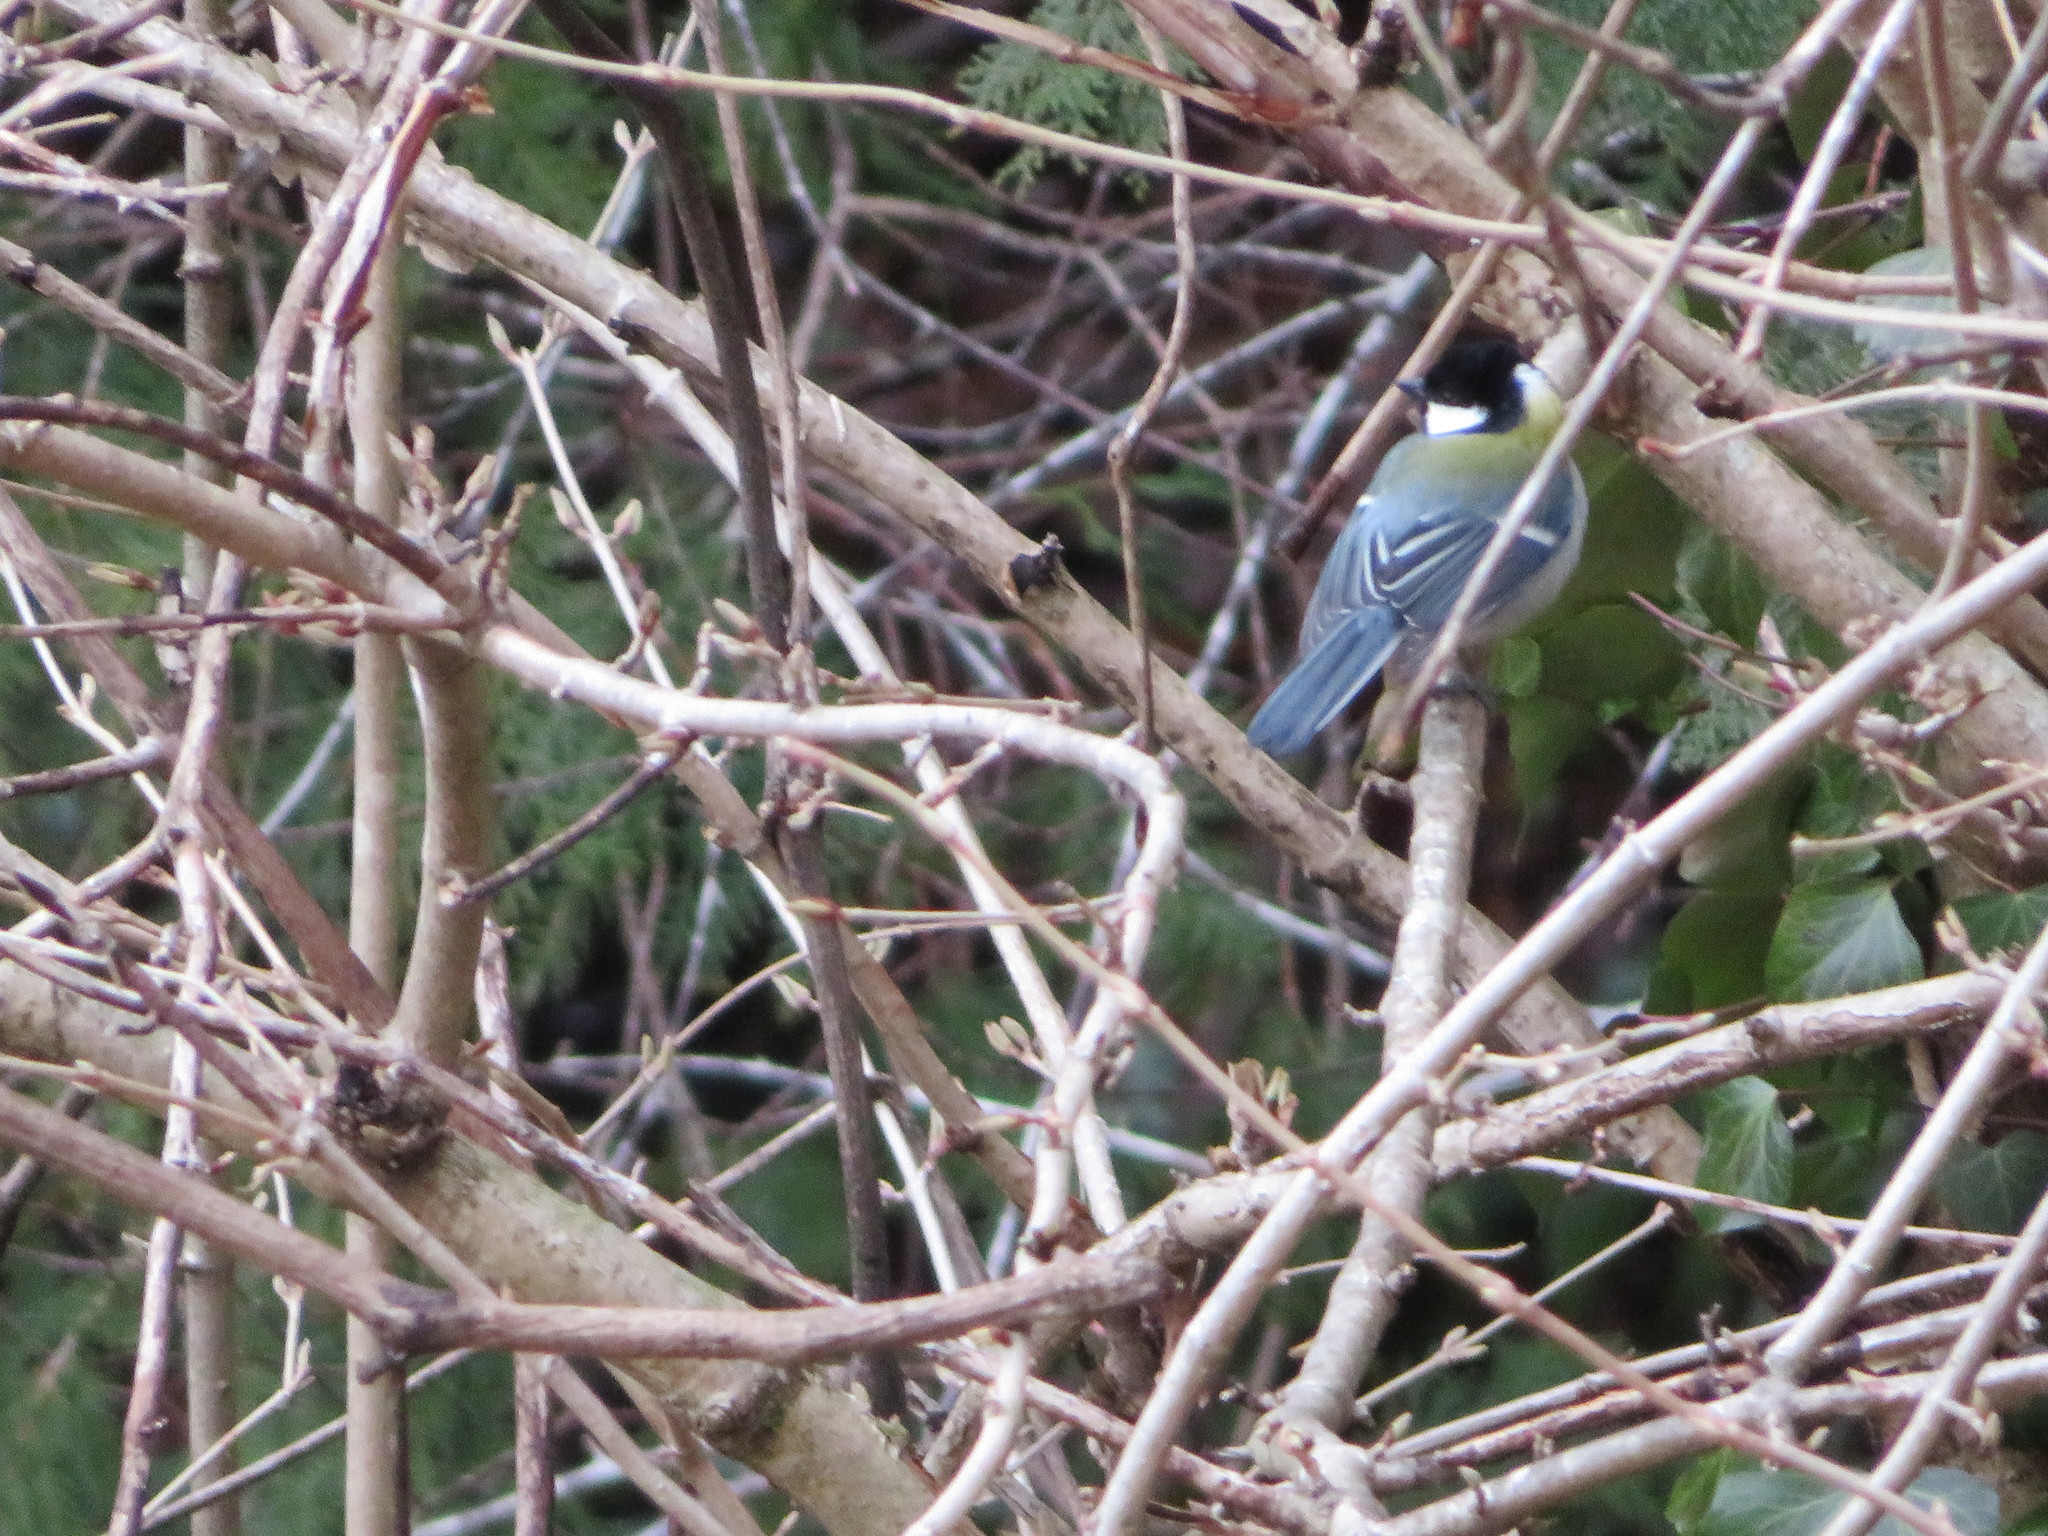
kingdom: Animalia
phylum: Chordata
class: Aves
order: Passeriformes
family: Paridae
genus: Parus
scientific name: Parus minor
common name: Japanese tit
